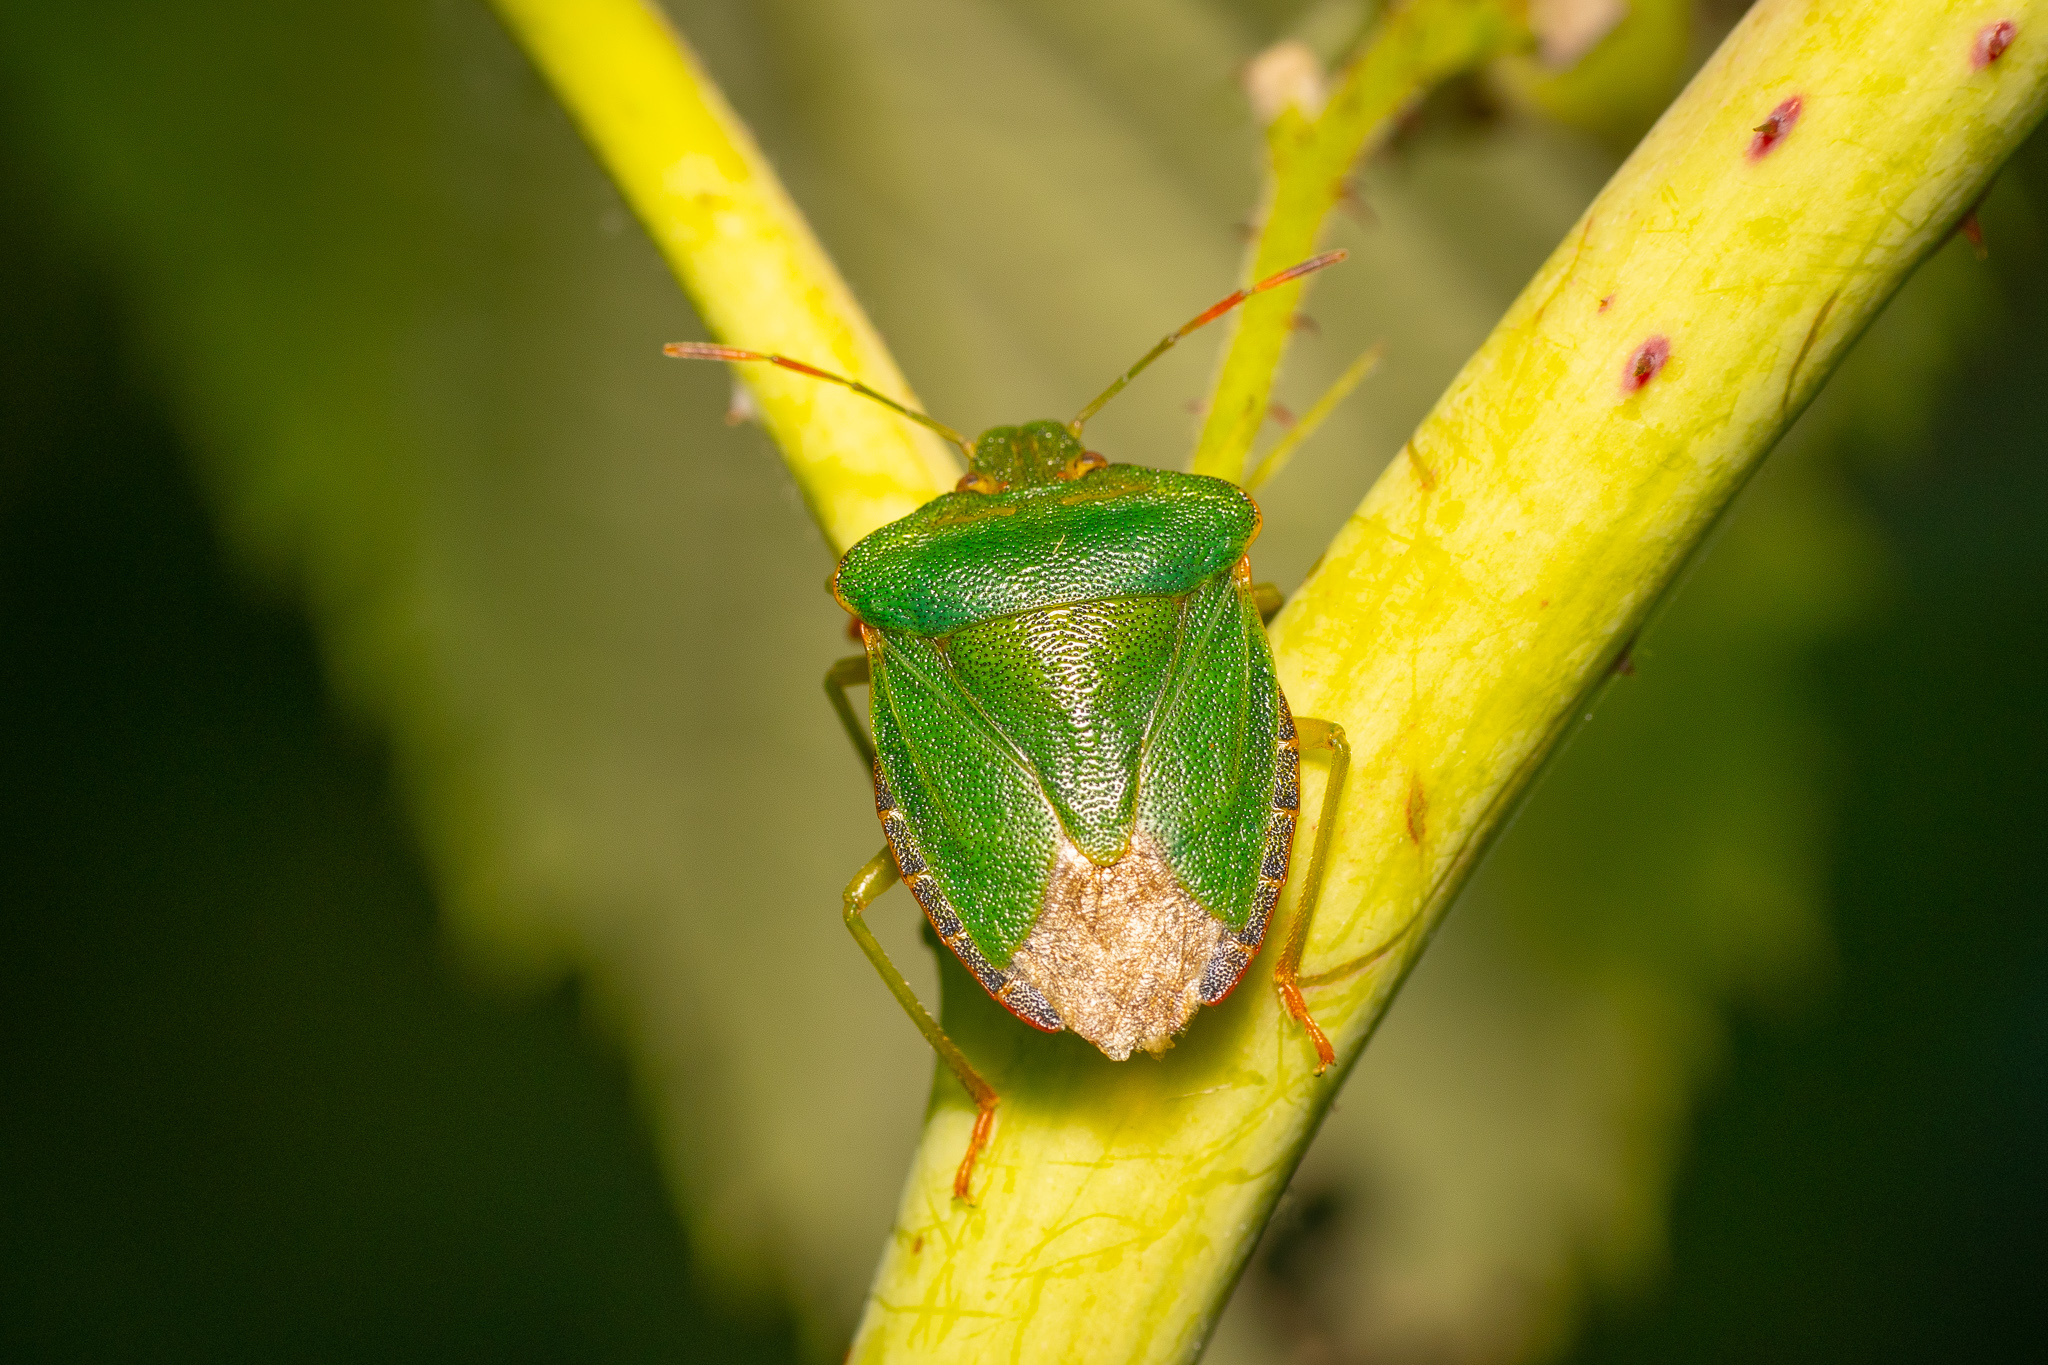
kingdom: Animalia
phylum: Arthropoda
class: Insecta
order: Hemiptera
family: Pentatomidae
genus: Palomena
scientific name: Palomena prasina
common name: Green shieldbug
